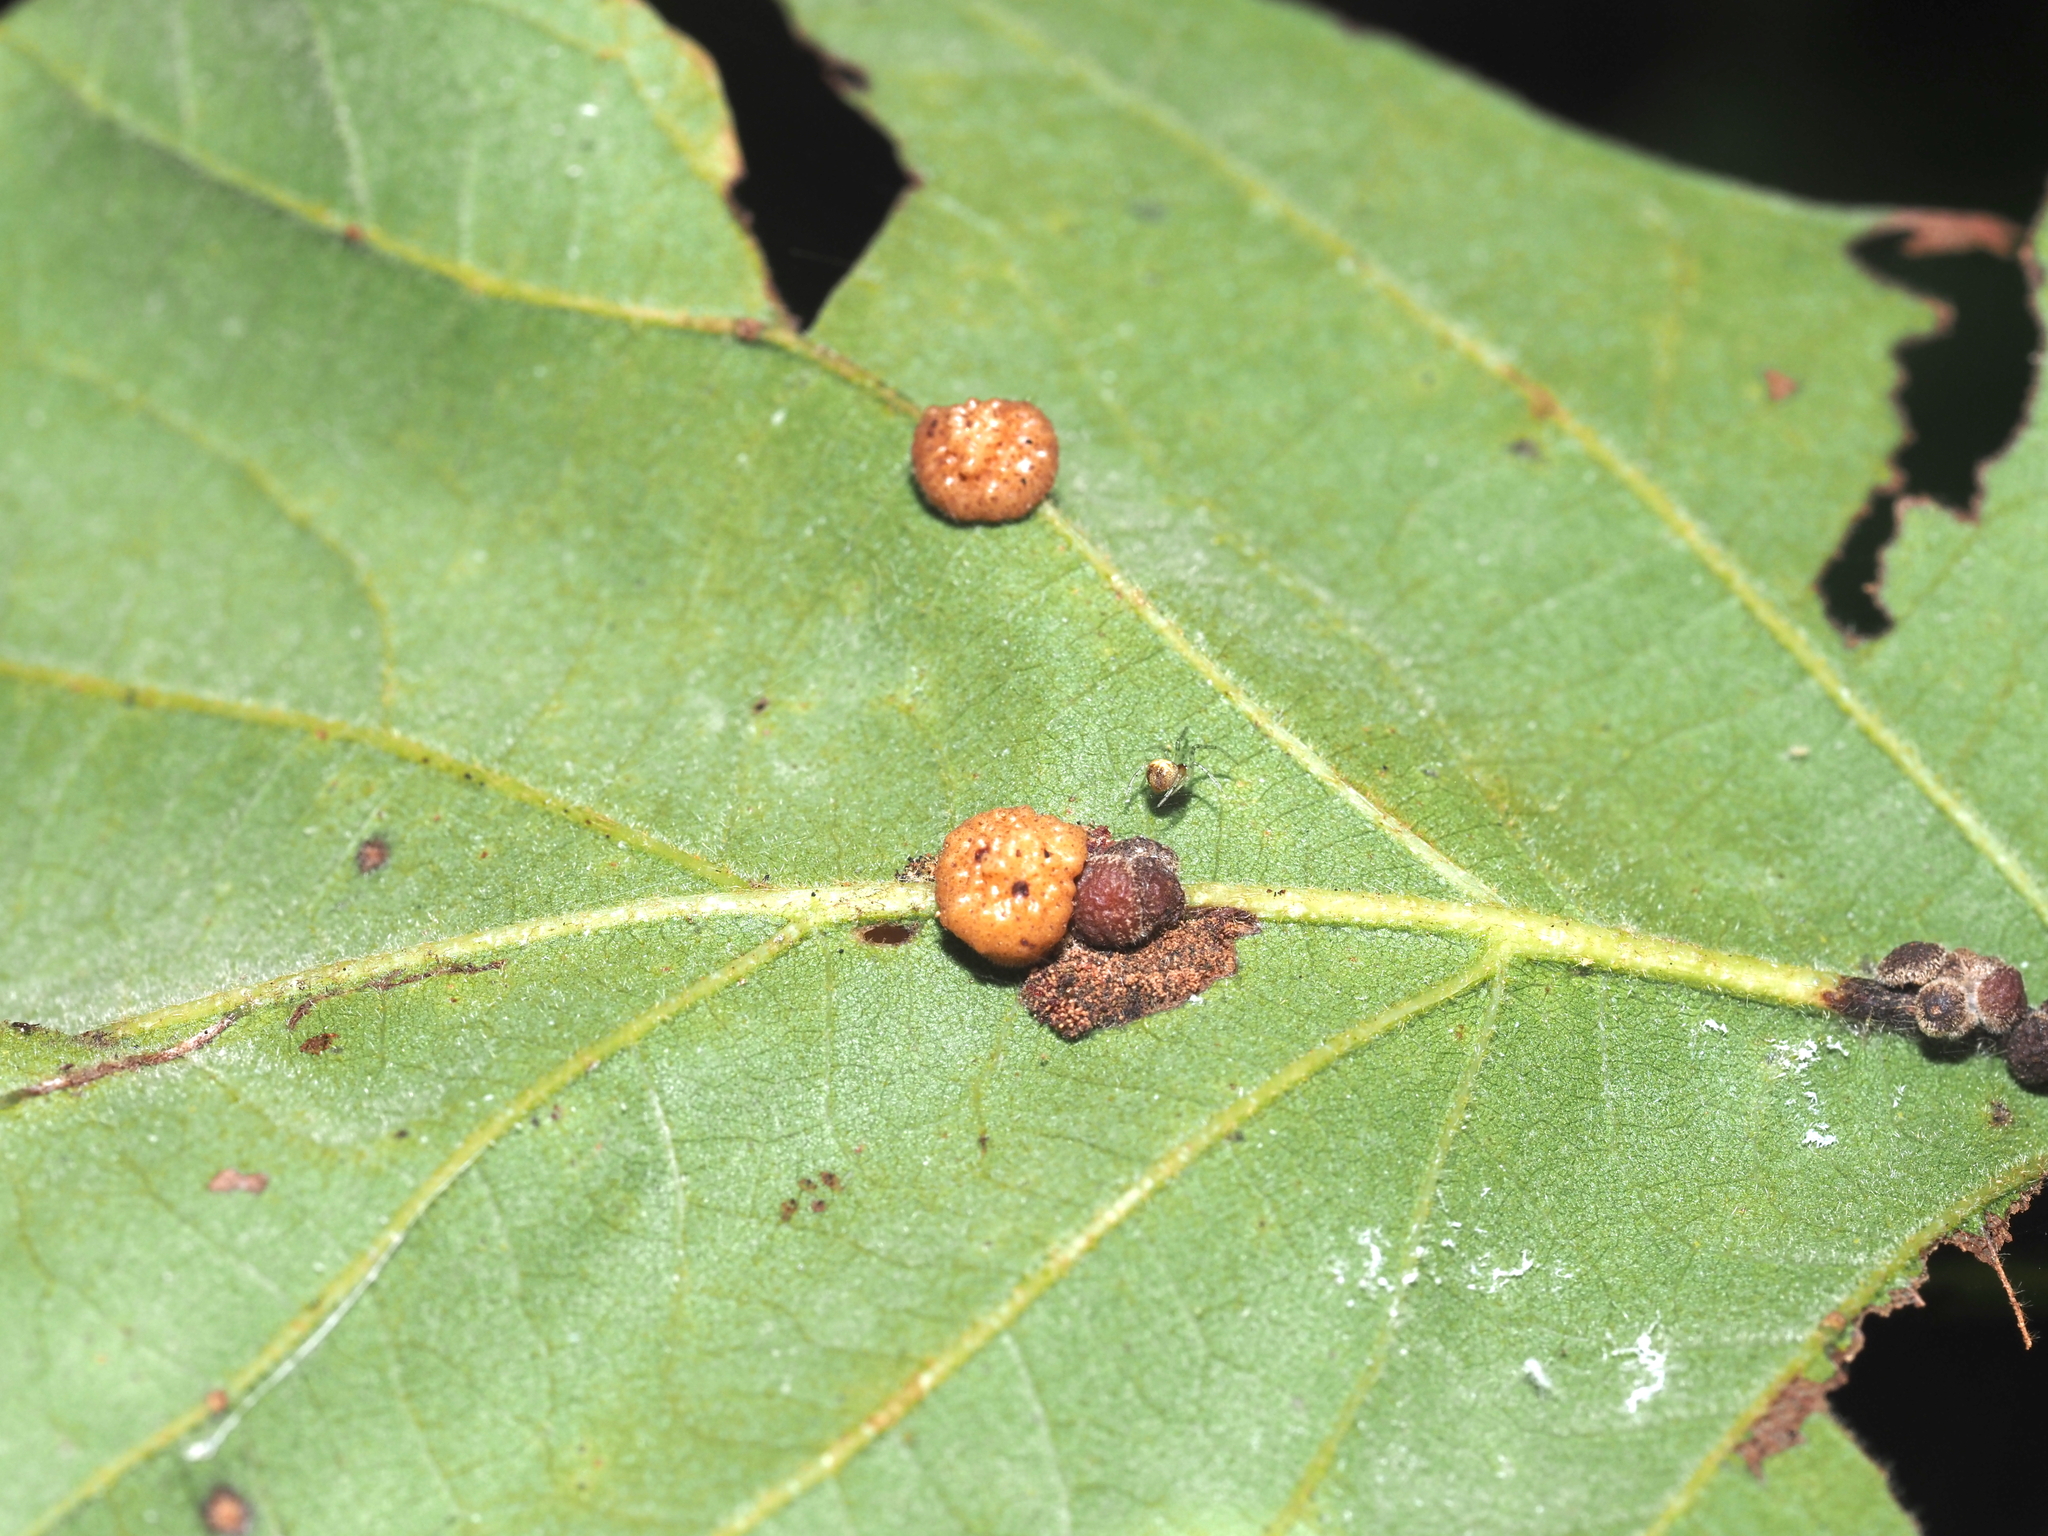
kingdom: Animalia
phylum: Arthropoda
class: Insecta
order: Hymenoptera
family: Cynipidae
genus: Andricus
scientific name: Andricus
